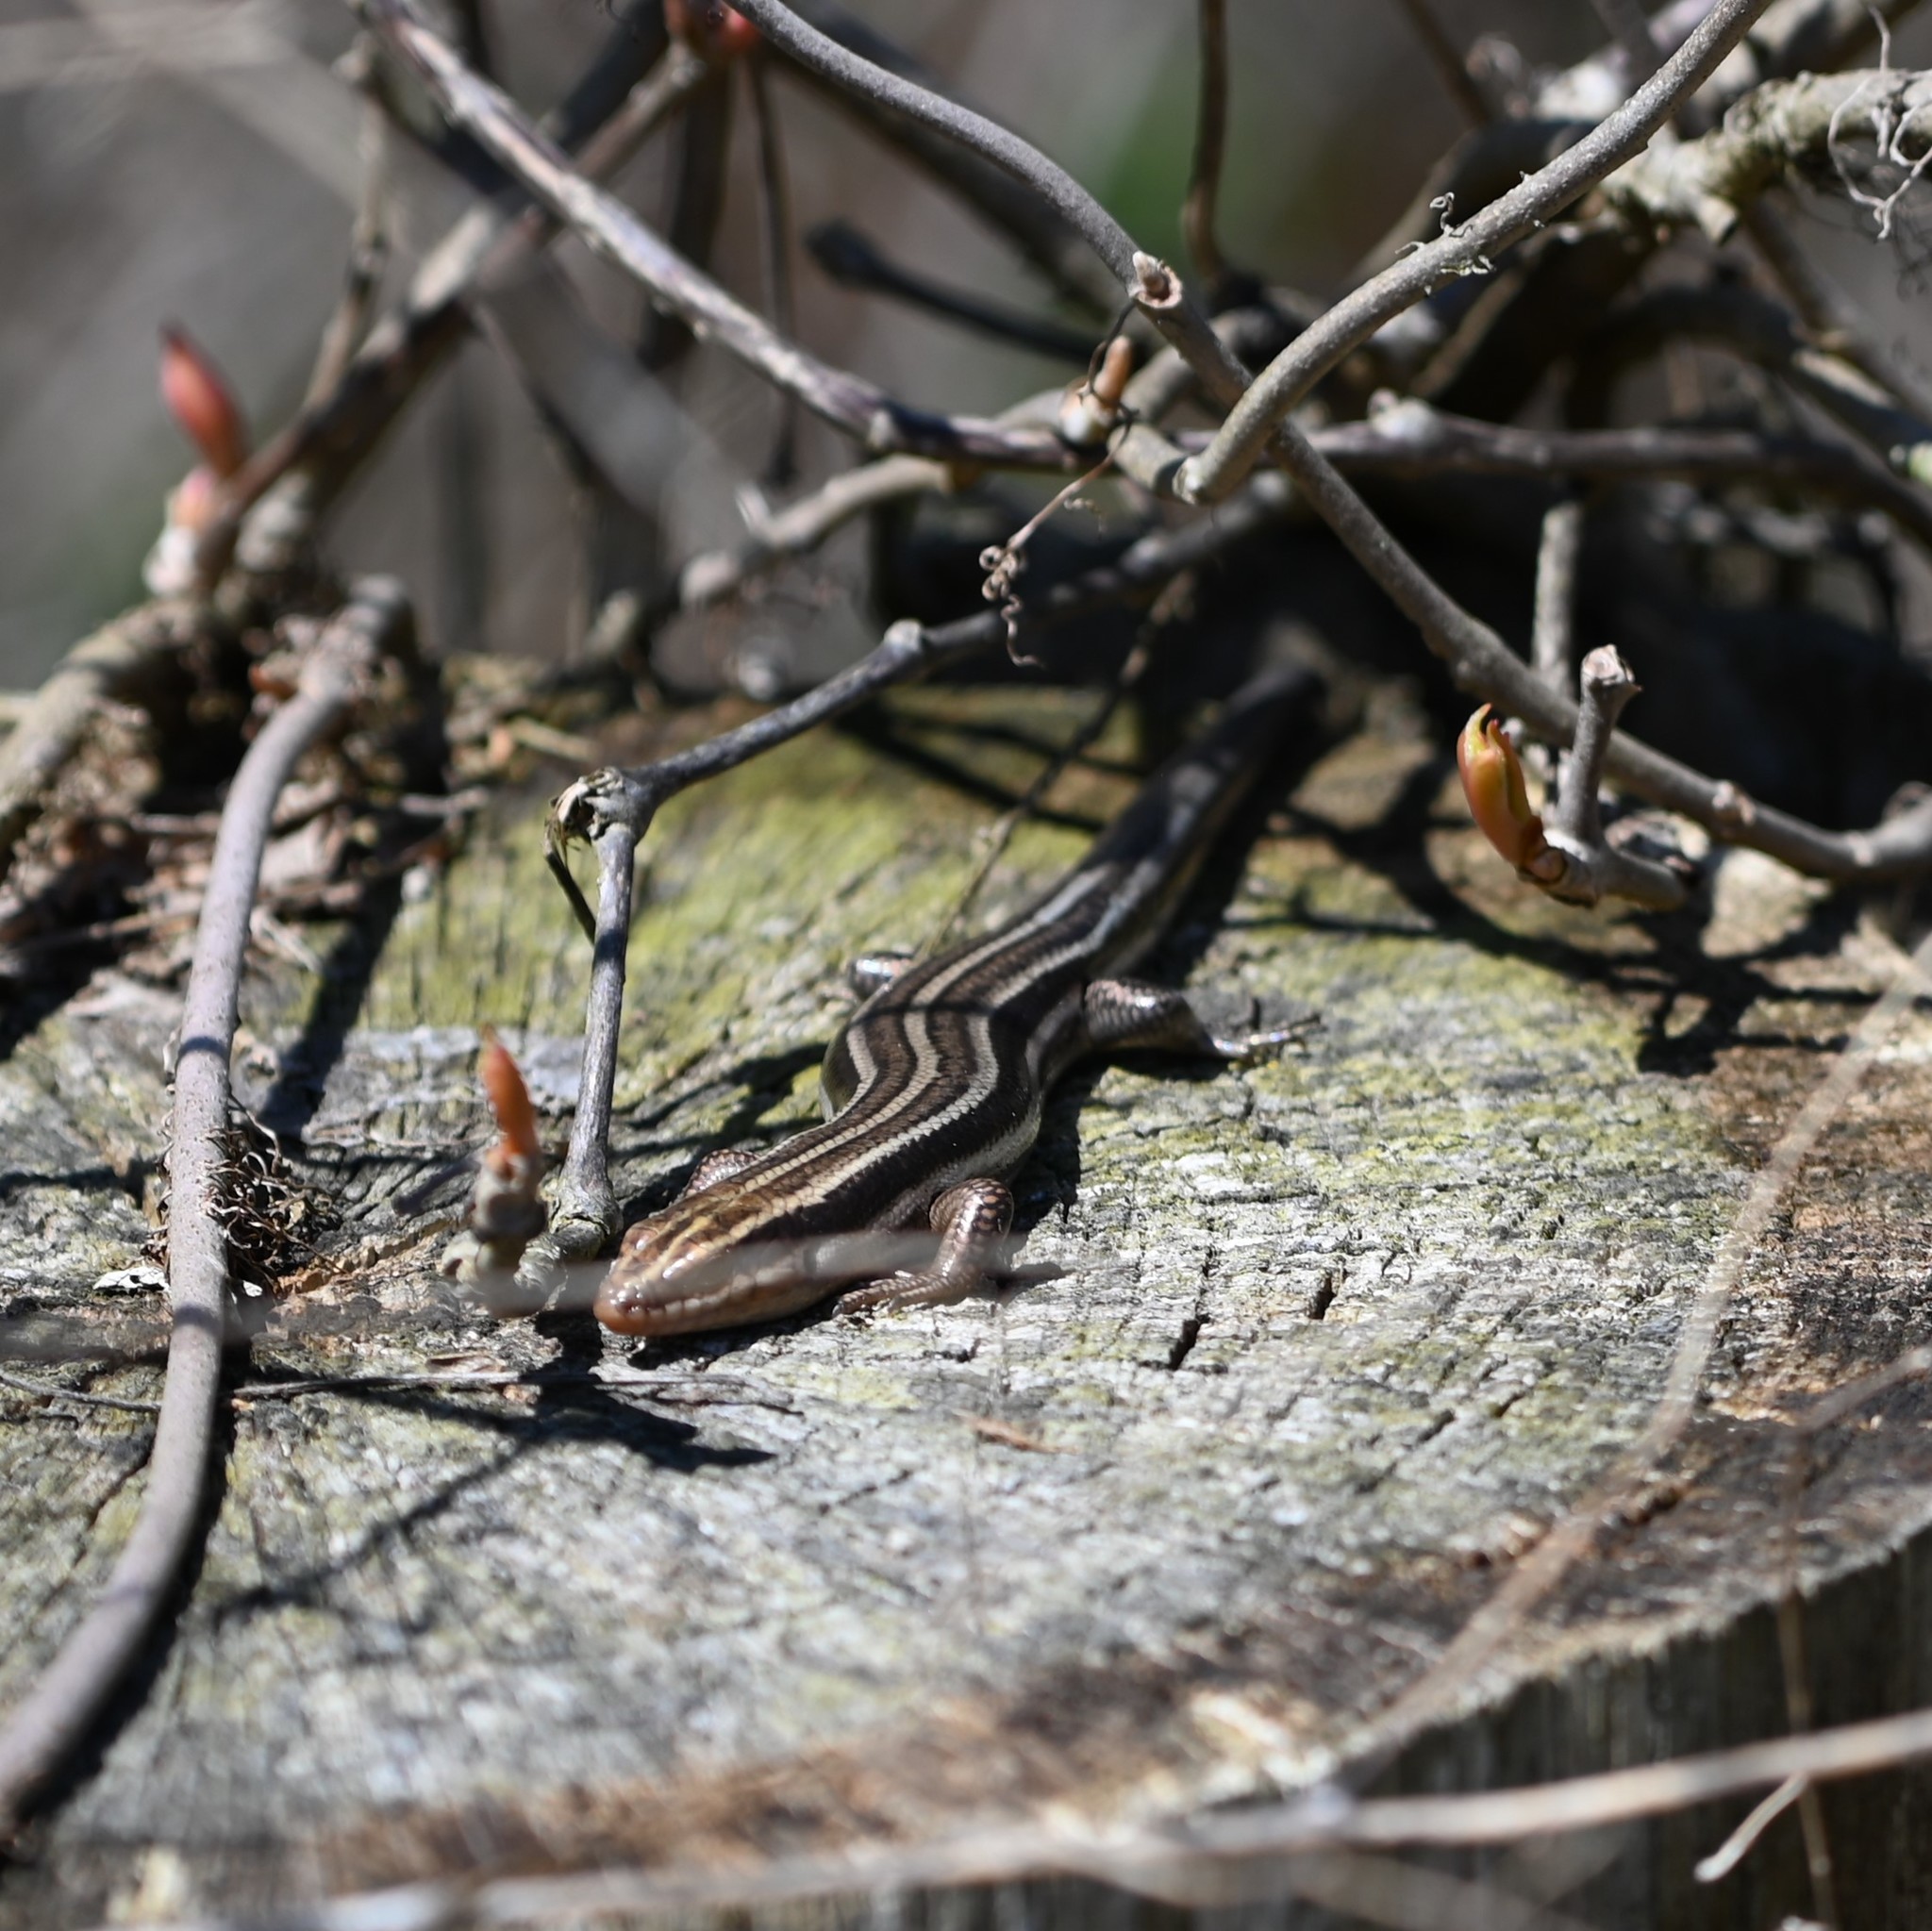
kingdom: Animalia
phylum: Chordata
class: Squamata
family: Scincidae
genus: Plestiodon
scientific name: Plestiodon fasciatus
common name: Five-lined skink
